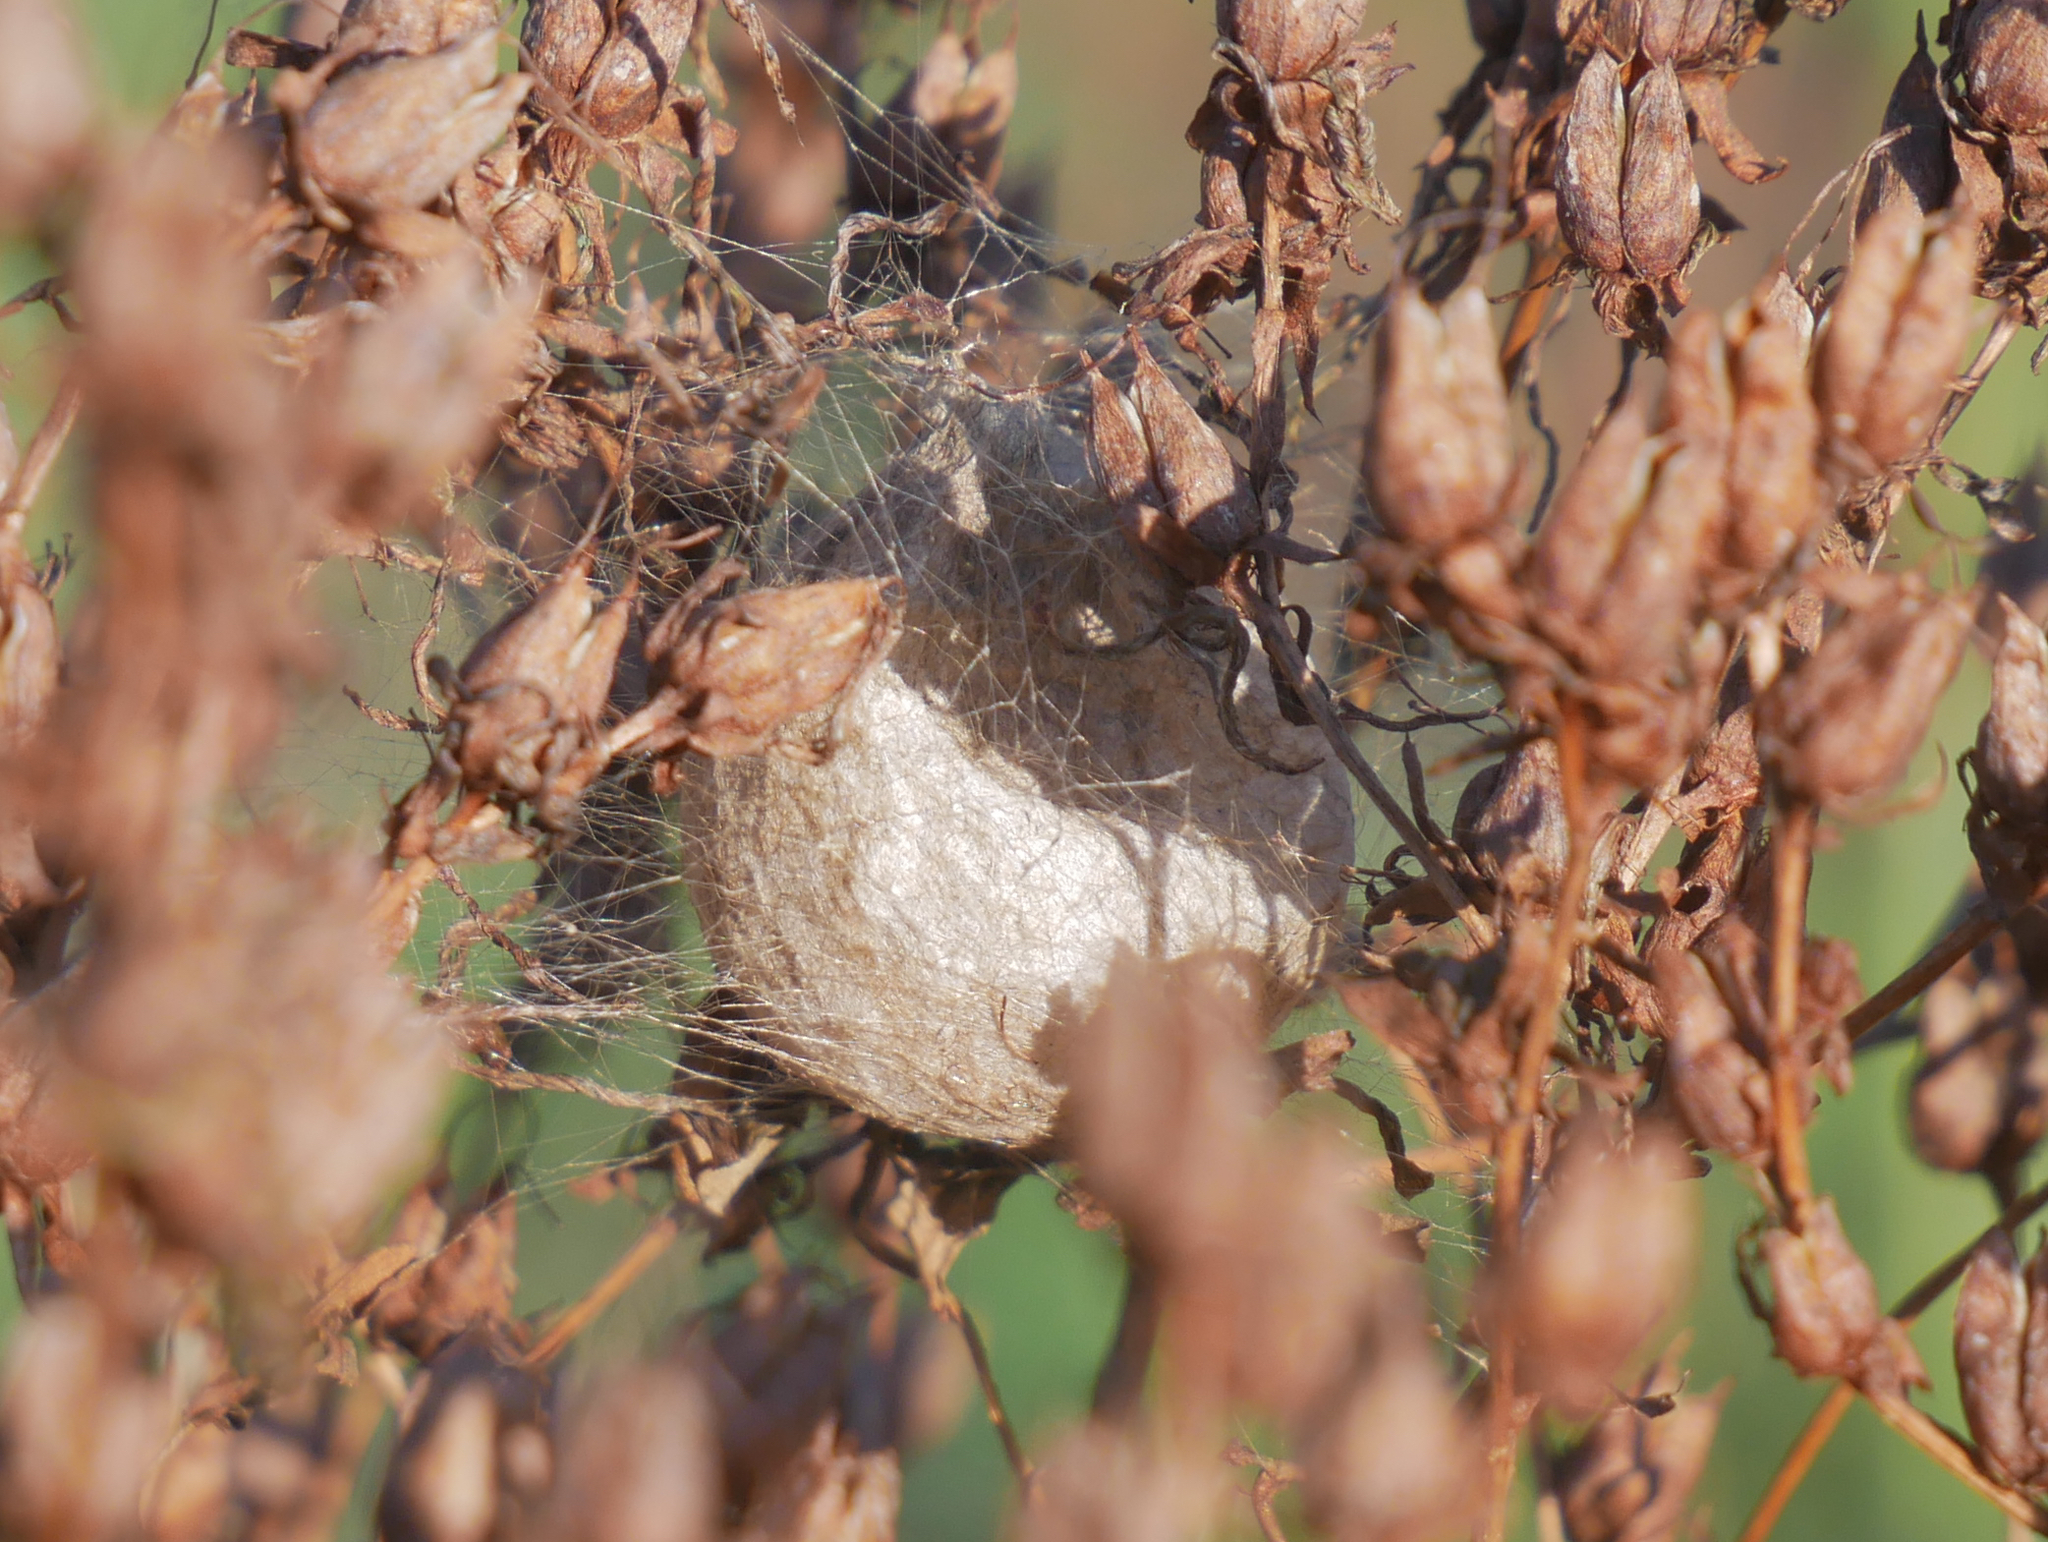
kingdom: Animalia
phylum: Arthropoda
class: Arachnida
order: Araneae
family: Araneidae
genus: Argiope
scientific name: Argiope bruennichi
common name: Wasp spider
